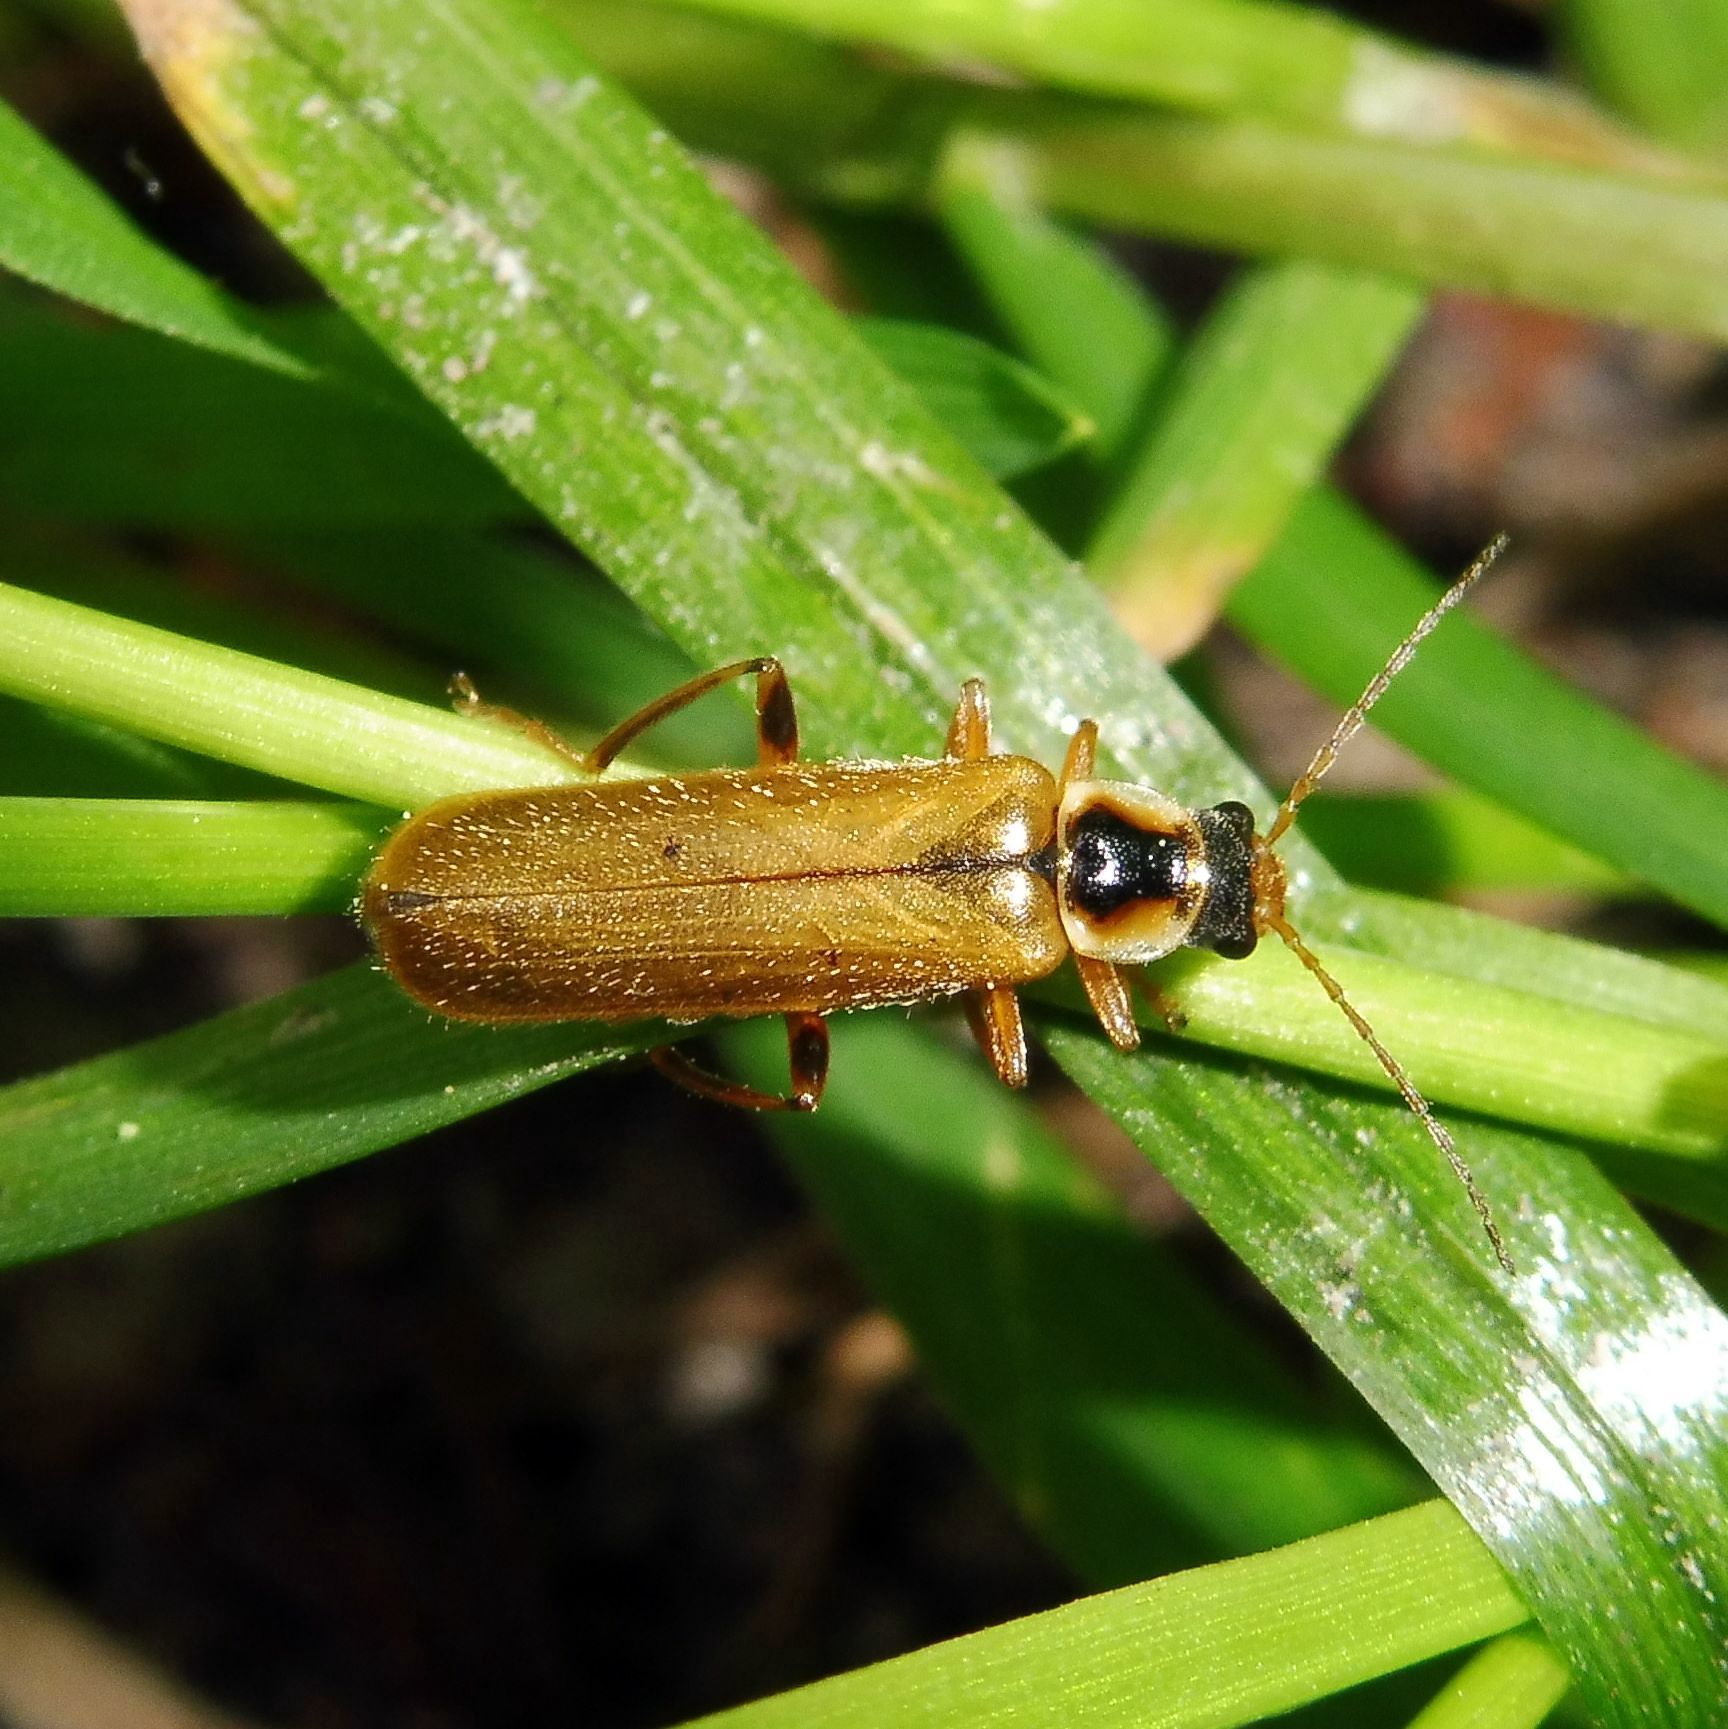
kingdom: Animalia
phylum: Arthropoda
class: Insecta
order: Coleoptera
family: Cantharidae
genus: Cantharis
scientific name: Cantharis decipiens
